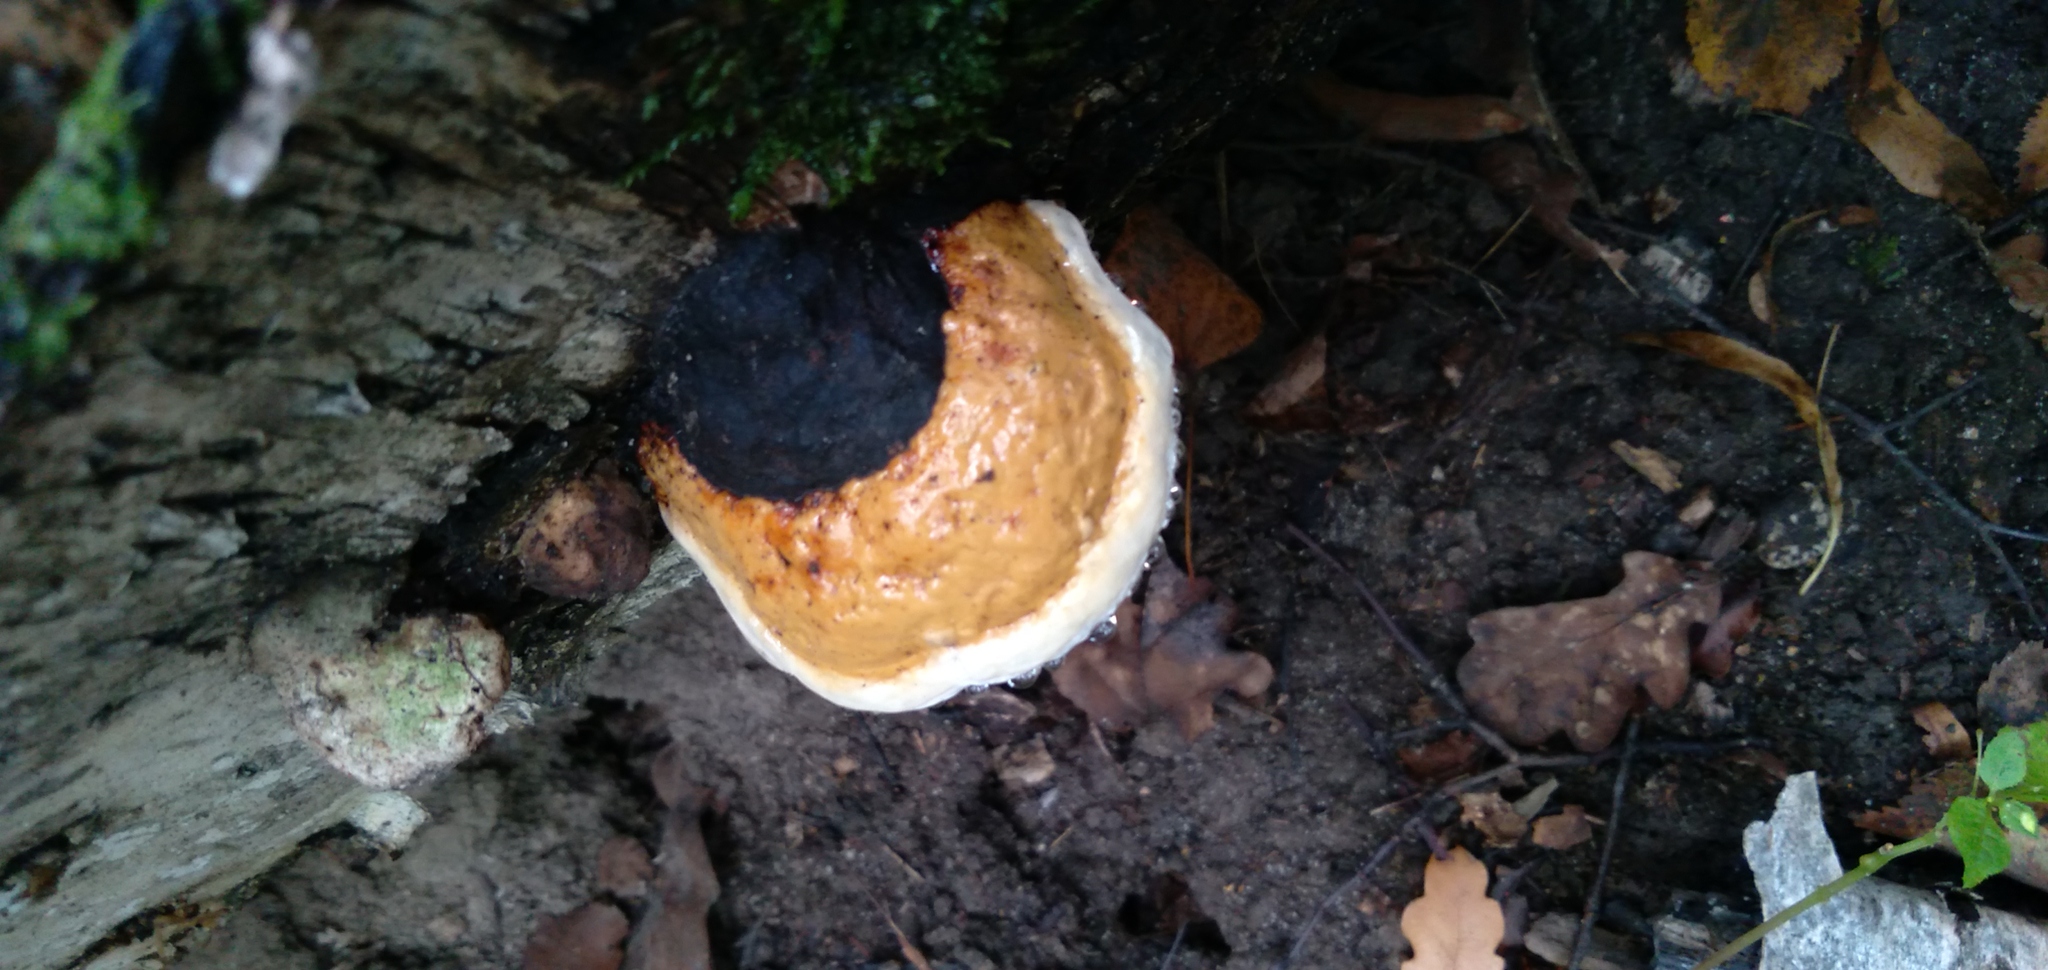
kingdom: Fungi
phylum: Basidiomycota
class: Agaricomycetes
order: Polyporales
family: Fomitopsidaceae
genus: Fomitopsis
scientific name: Fomitopsis pinicola
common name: Red-belted bracket
